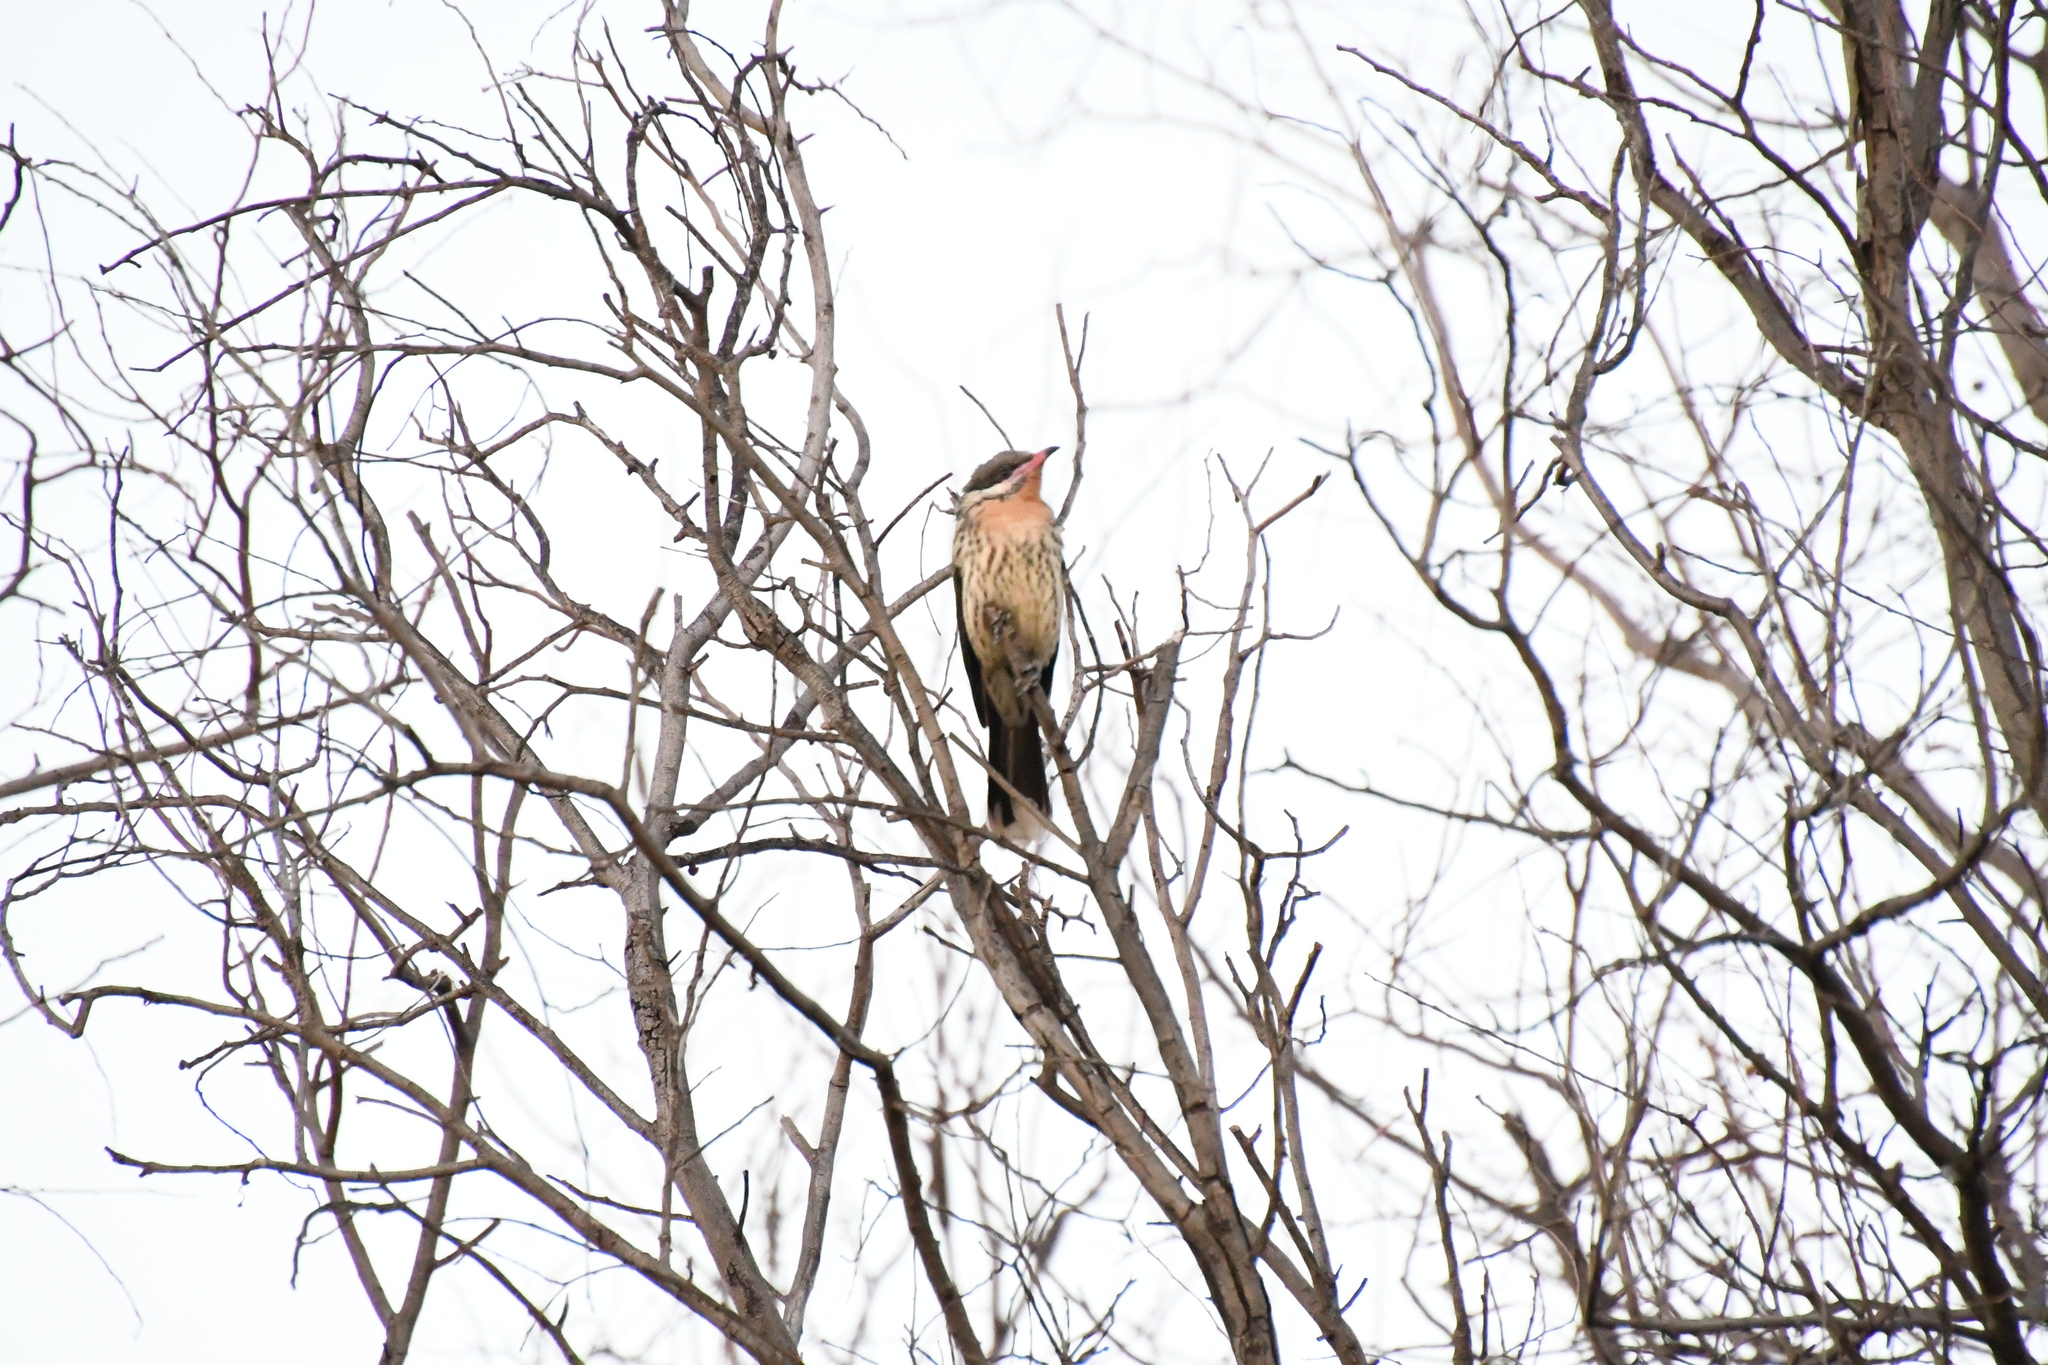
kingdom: Animalia
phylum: Chordata
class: Aves
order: Passeriformes
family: Meliphagidae
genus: Acanthagenys
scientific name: Acanthagenys rufogularis
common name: Spiny-cheeked honeyeater
